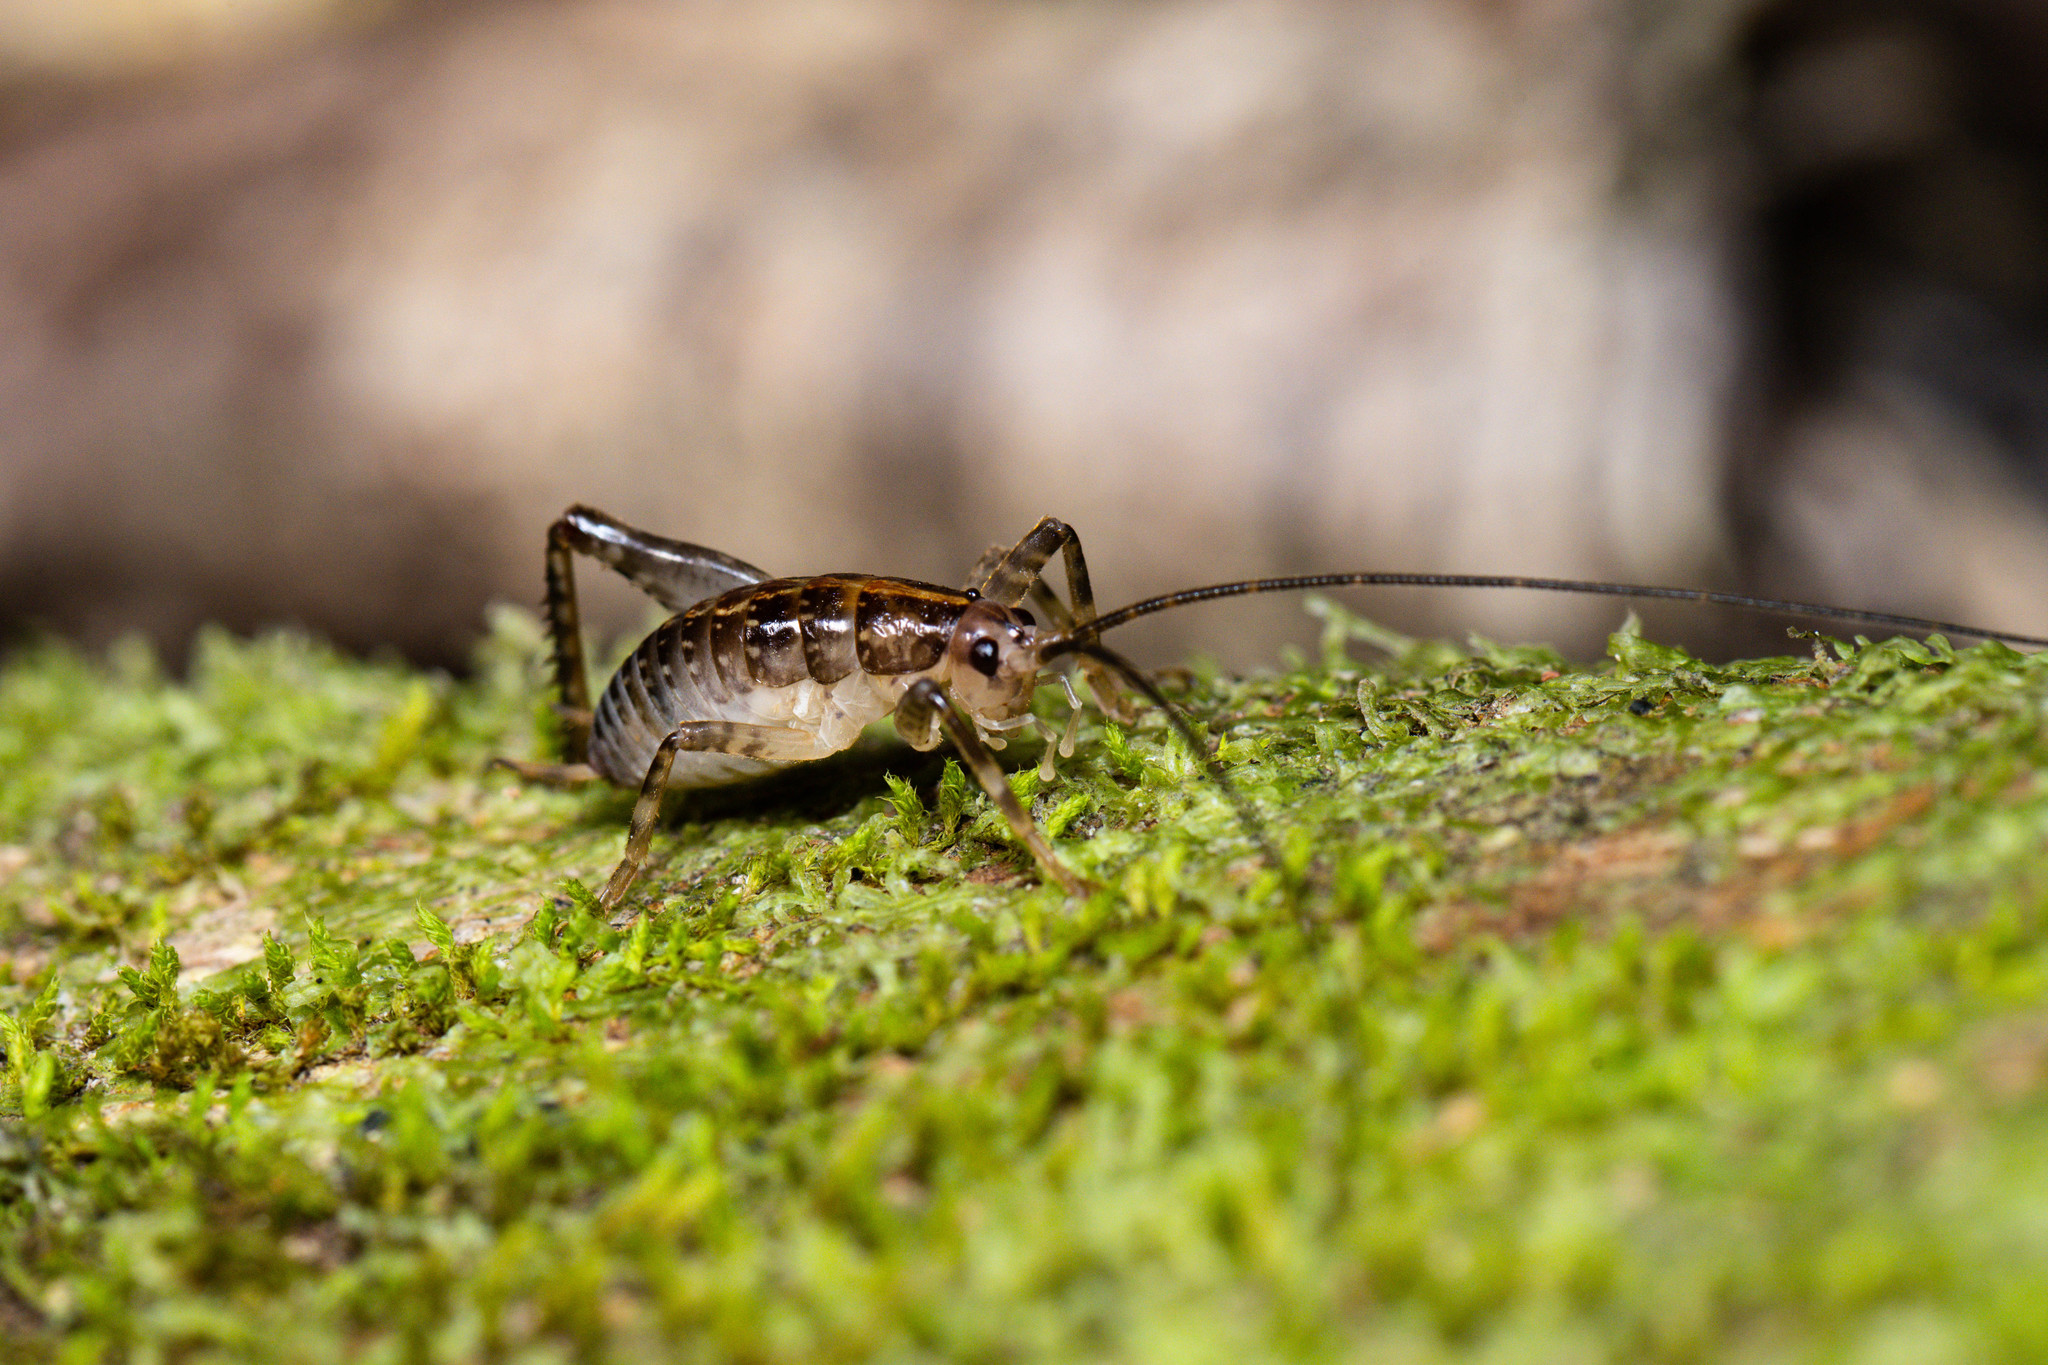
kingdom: Animalia
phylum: Arthropoda
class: Insecta
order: Orthoptera
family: Rhaphidophoridae
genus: Talitropsis
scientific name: Talitropsis sedilloti
